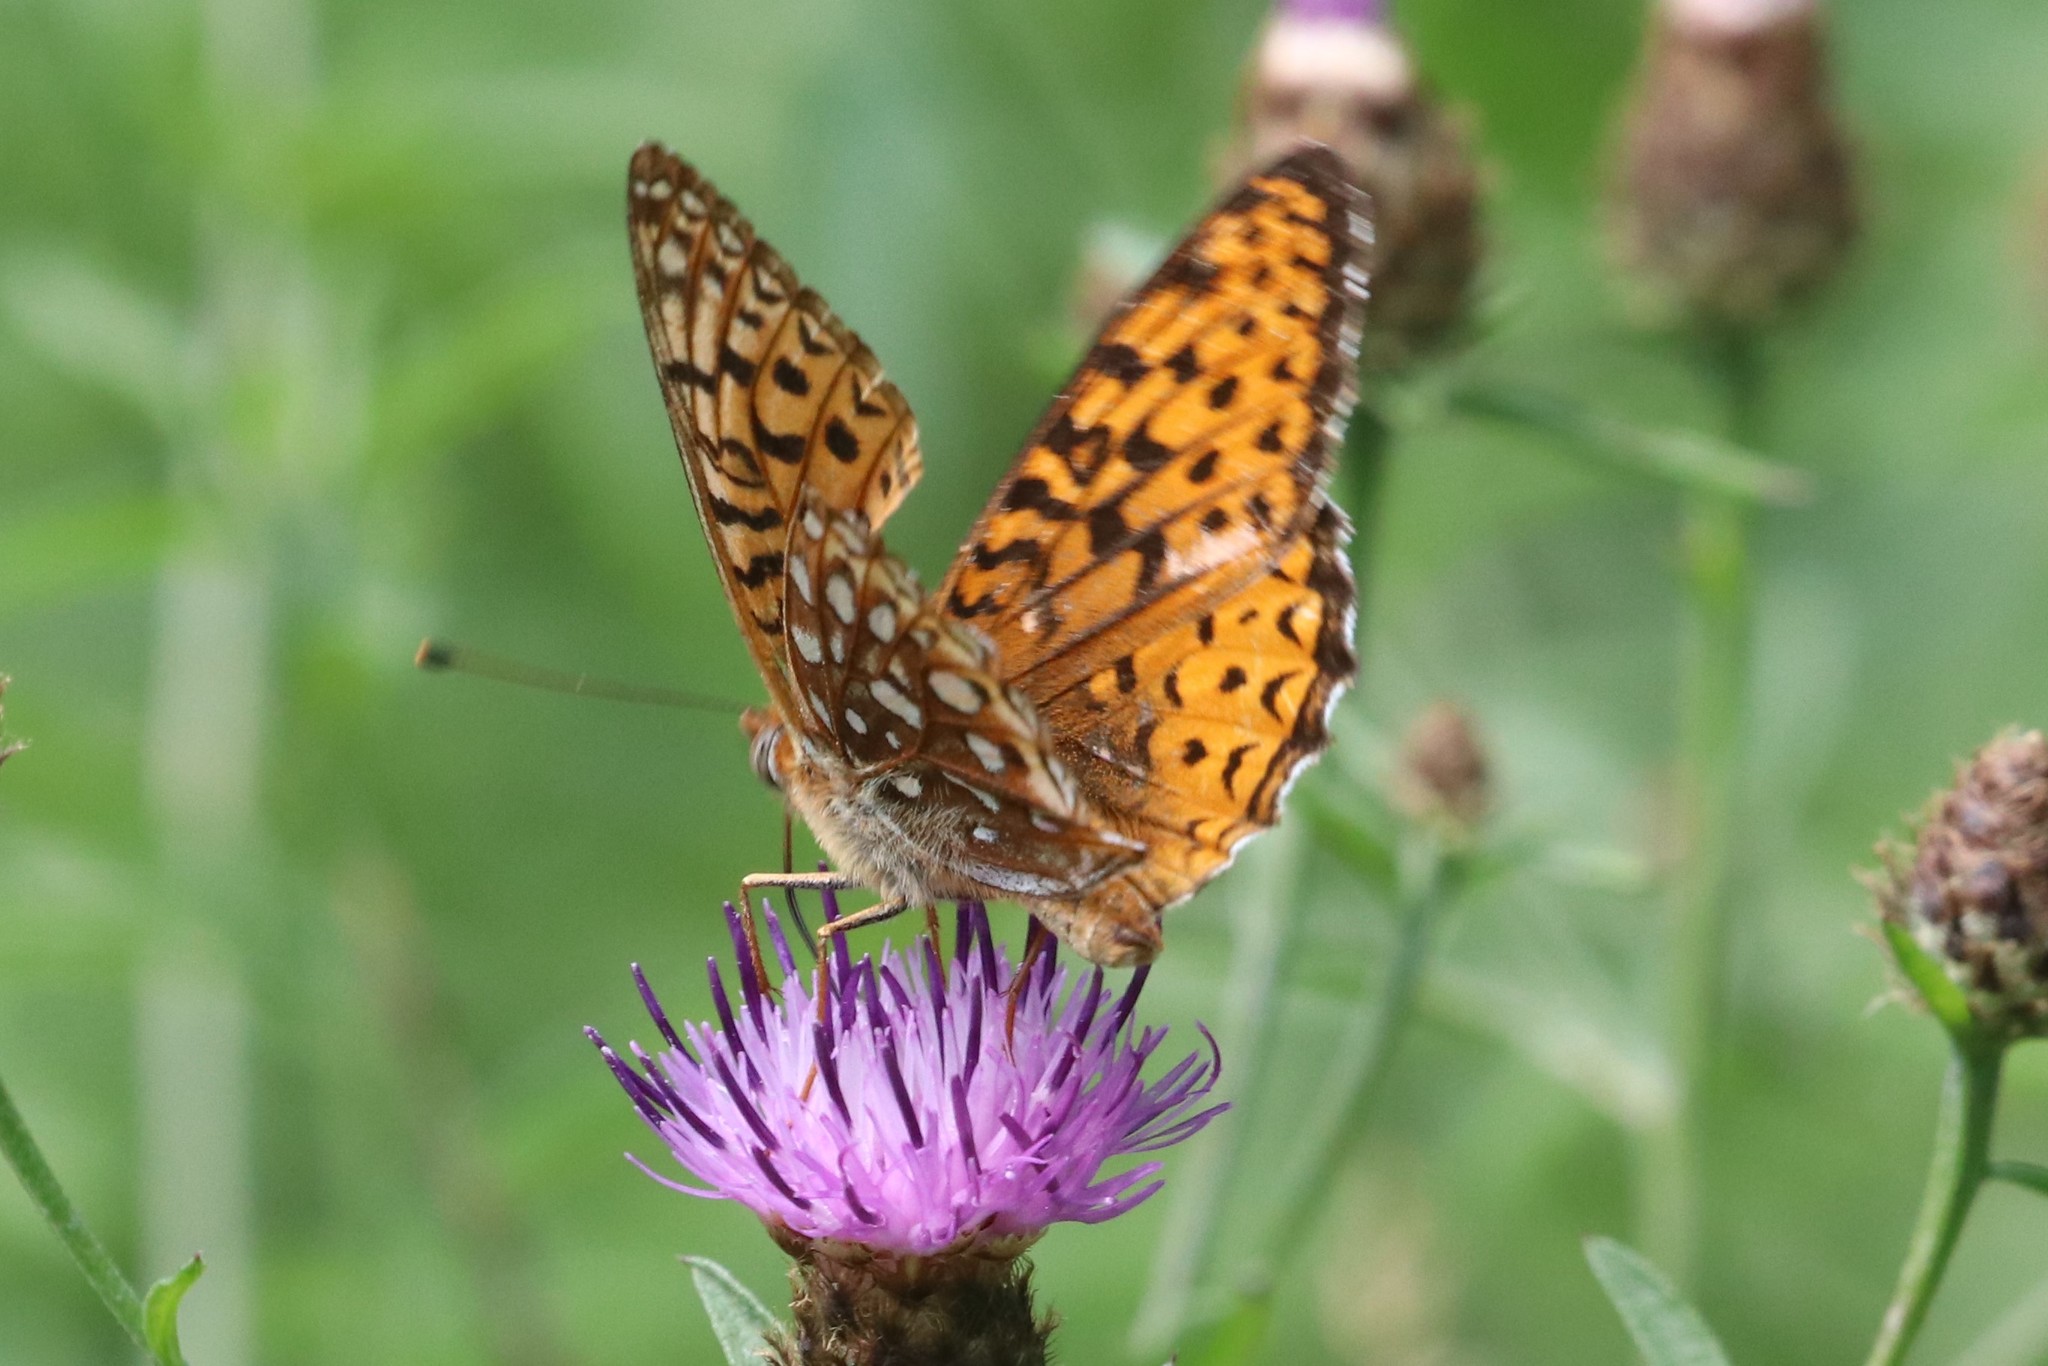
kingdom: Animalia
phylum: Arthropoda
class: Insecta
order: Lepidoptera
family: Nymphalidae
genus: Speyeria
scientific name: Speyeria atlantis
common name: Atlantis fritillary
